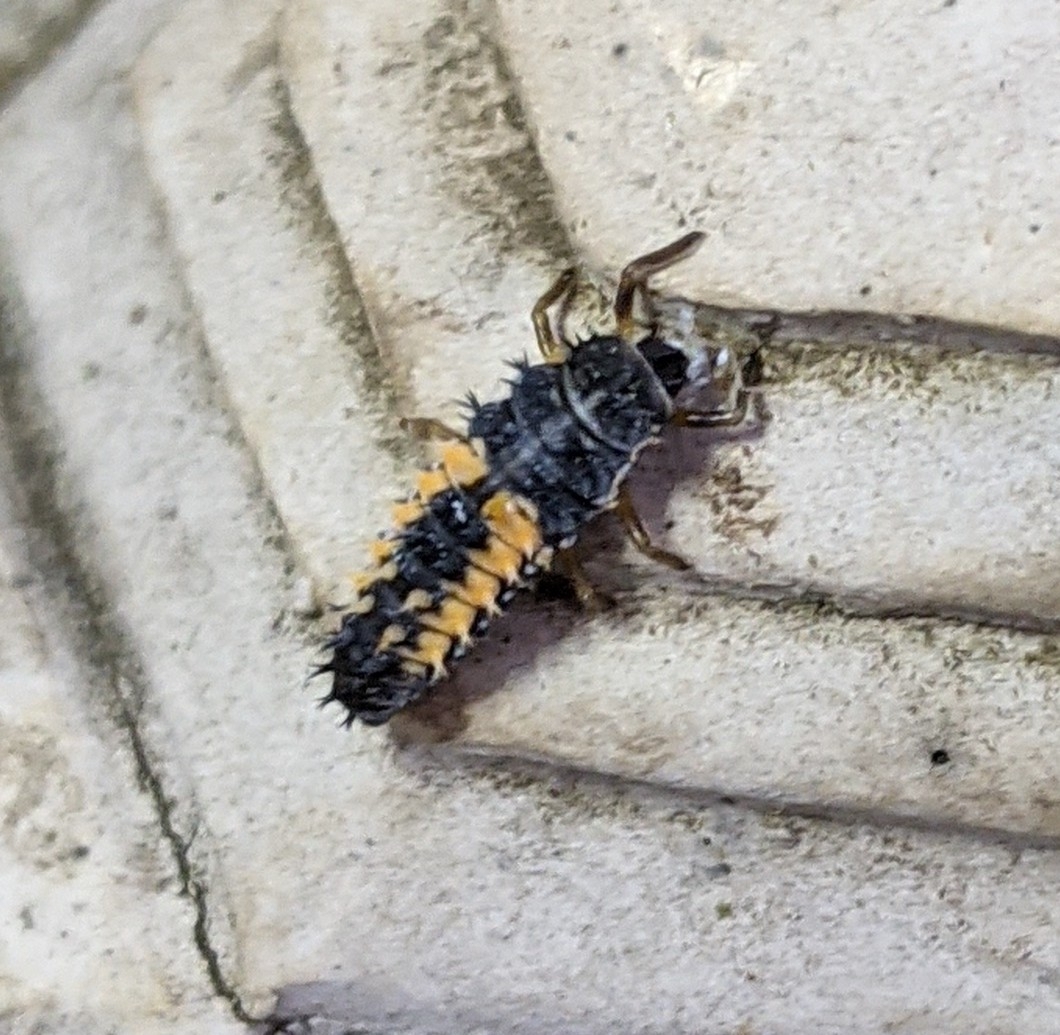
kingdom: Animalia
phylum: Arthropoda
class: Insecta
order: Coleoptera
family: Coccinellidae
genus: Harmonia
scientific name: Harmonia axyridis
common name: Harlequin ladybird
